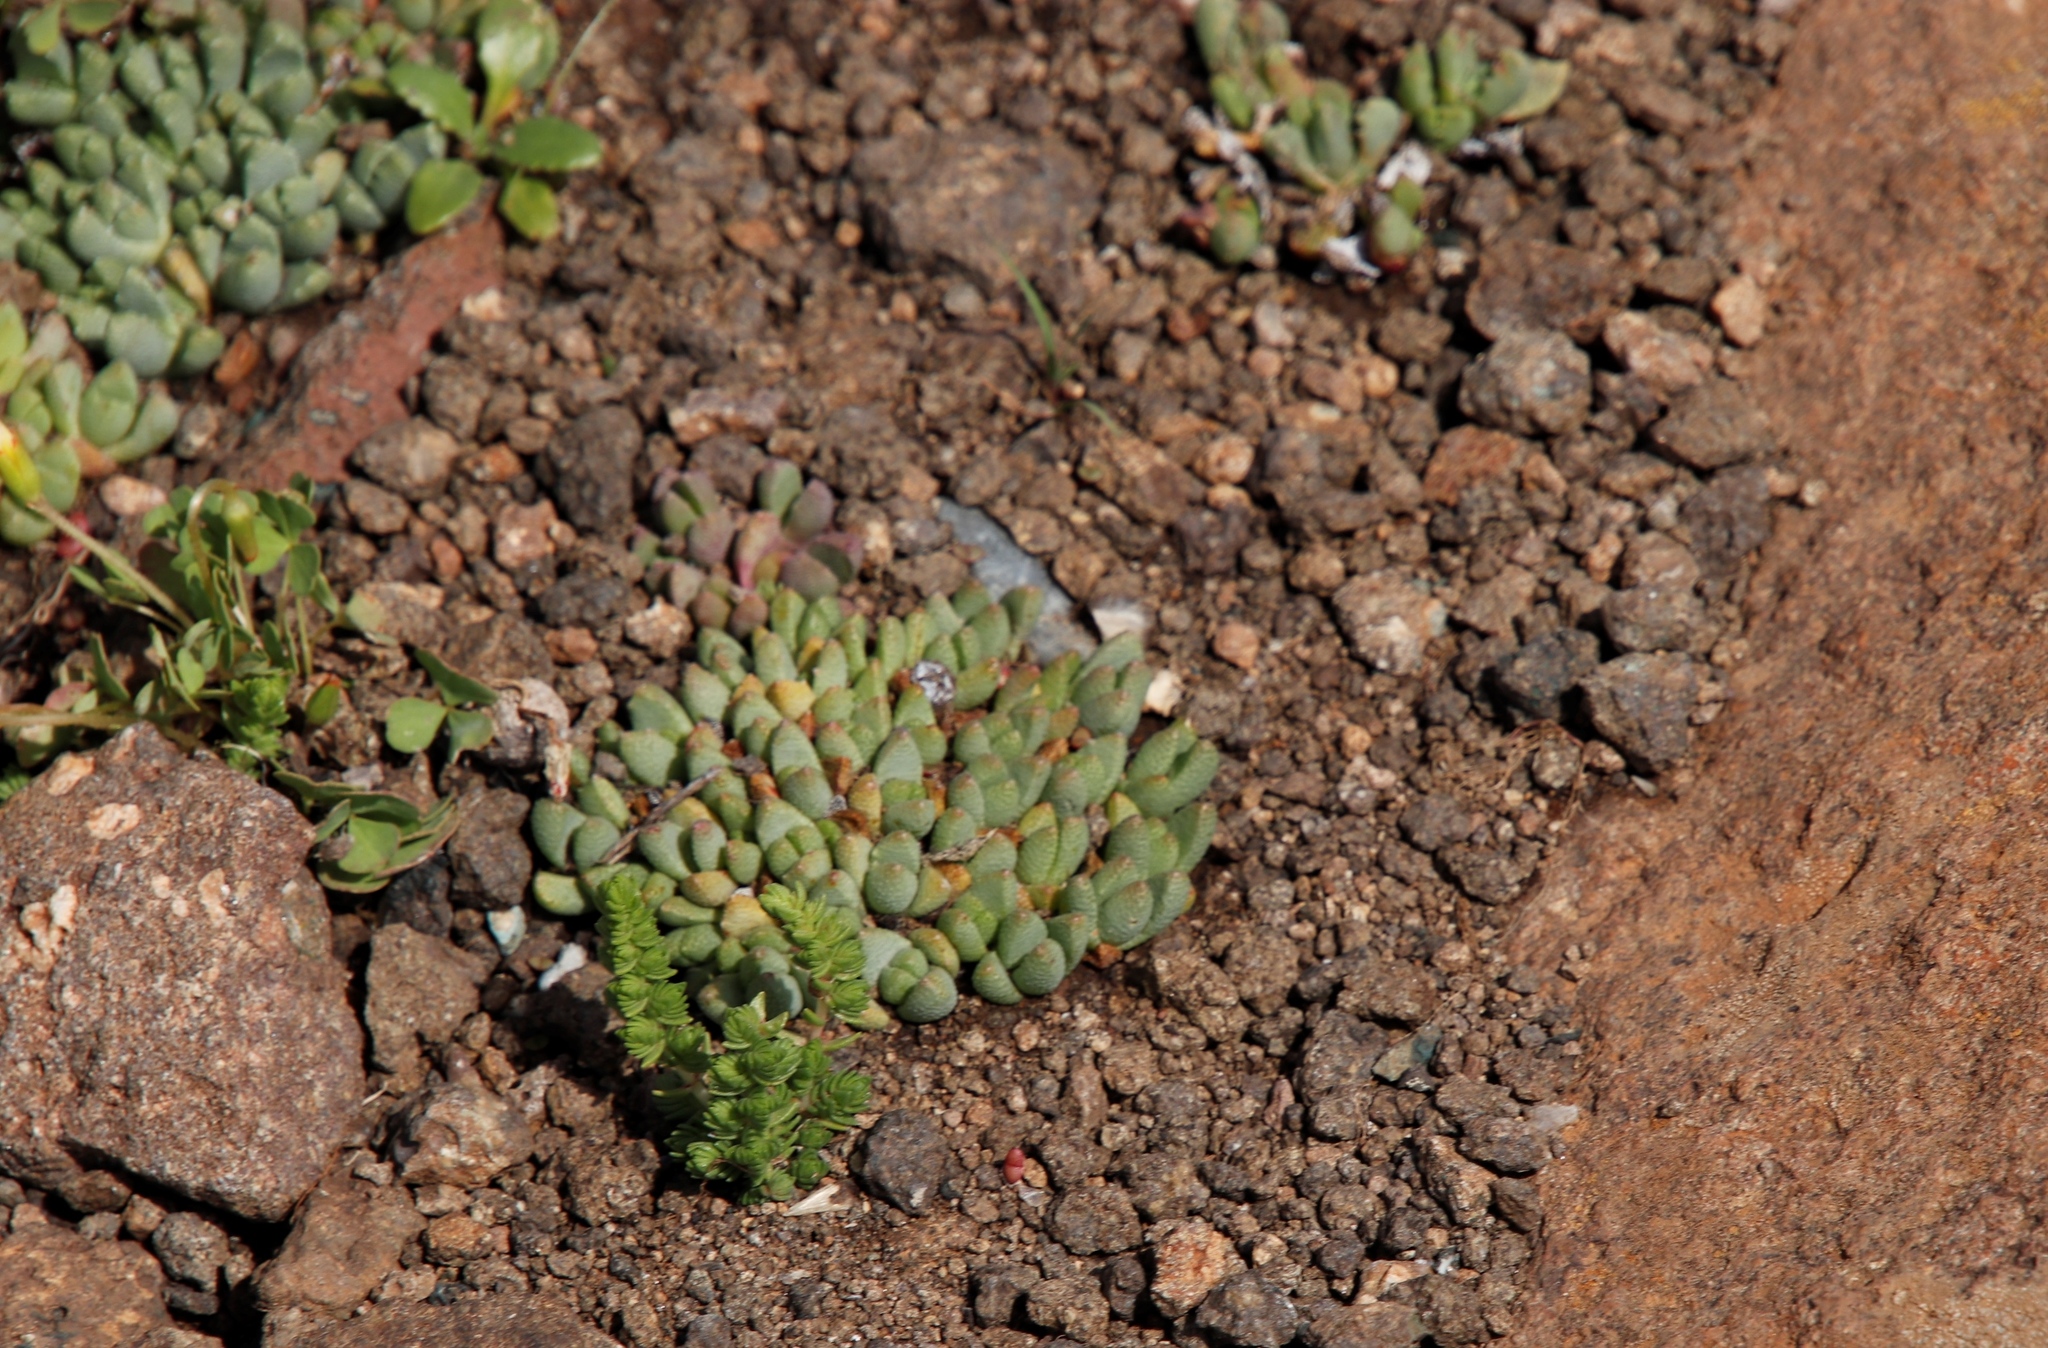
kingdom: Plantae
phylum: Tracheophyta
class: Magnoliopsida
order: Caryophyllales
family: Aizoaceae
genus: Stomatium
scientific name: Stomatium gerstneri
